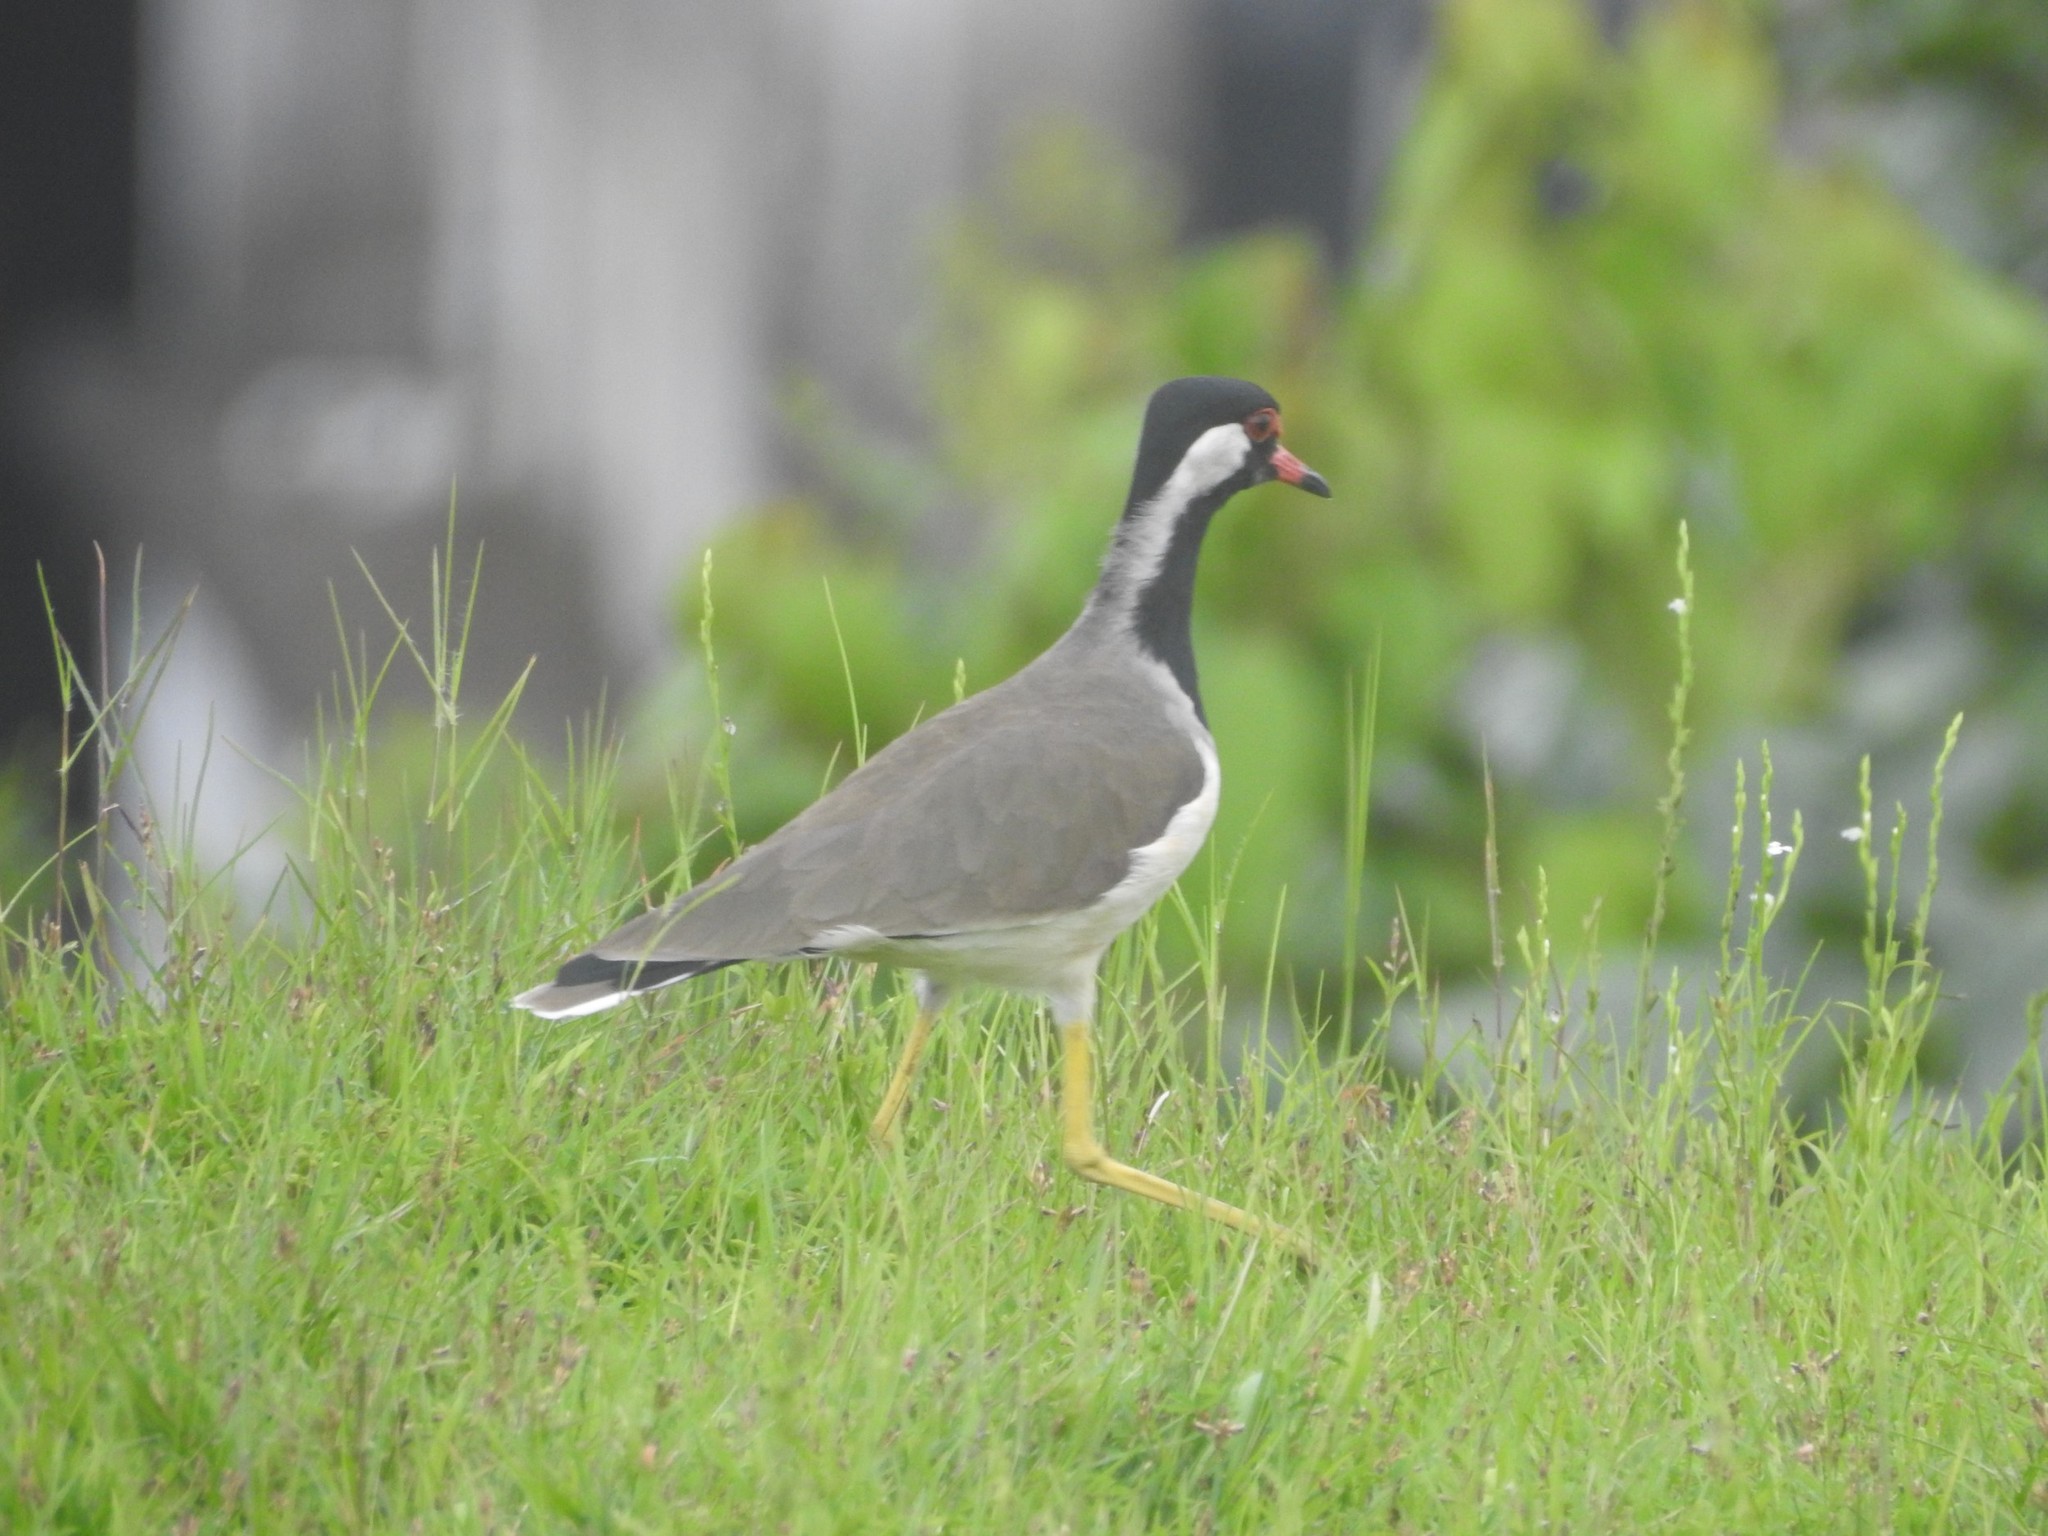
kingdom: Animalia
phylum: Chordata
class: Aves
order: Charadriiformes
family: Charadriidae
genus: Vanellus
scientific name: Vanellus indicus
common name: Red-wattled lapwing
